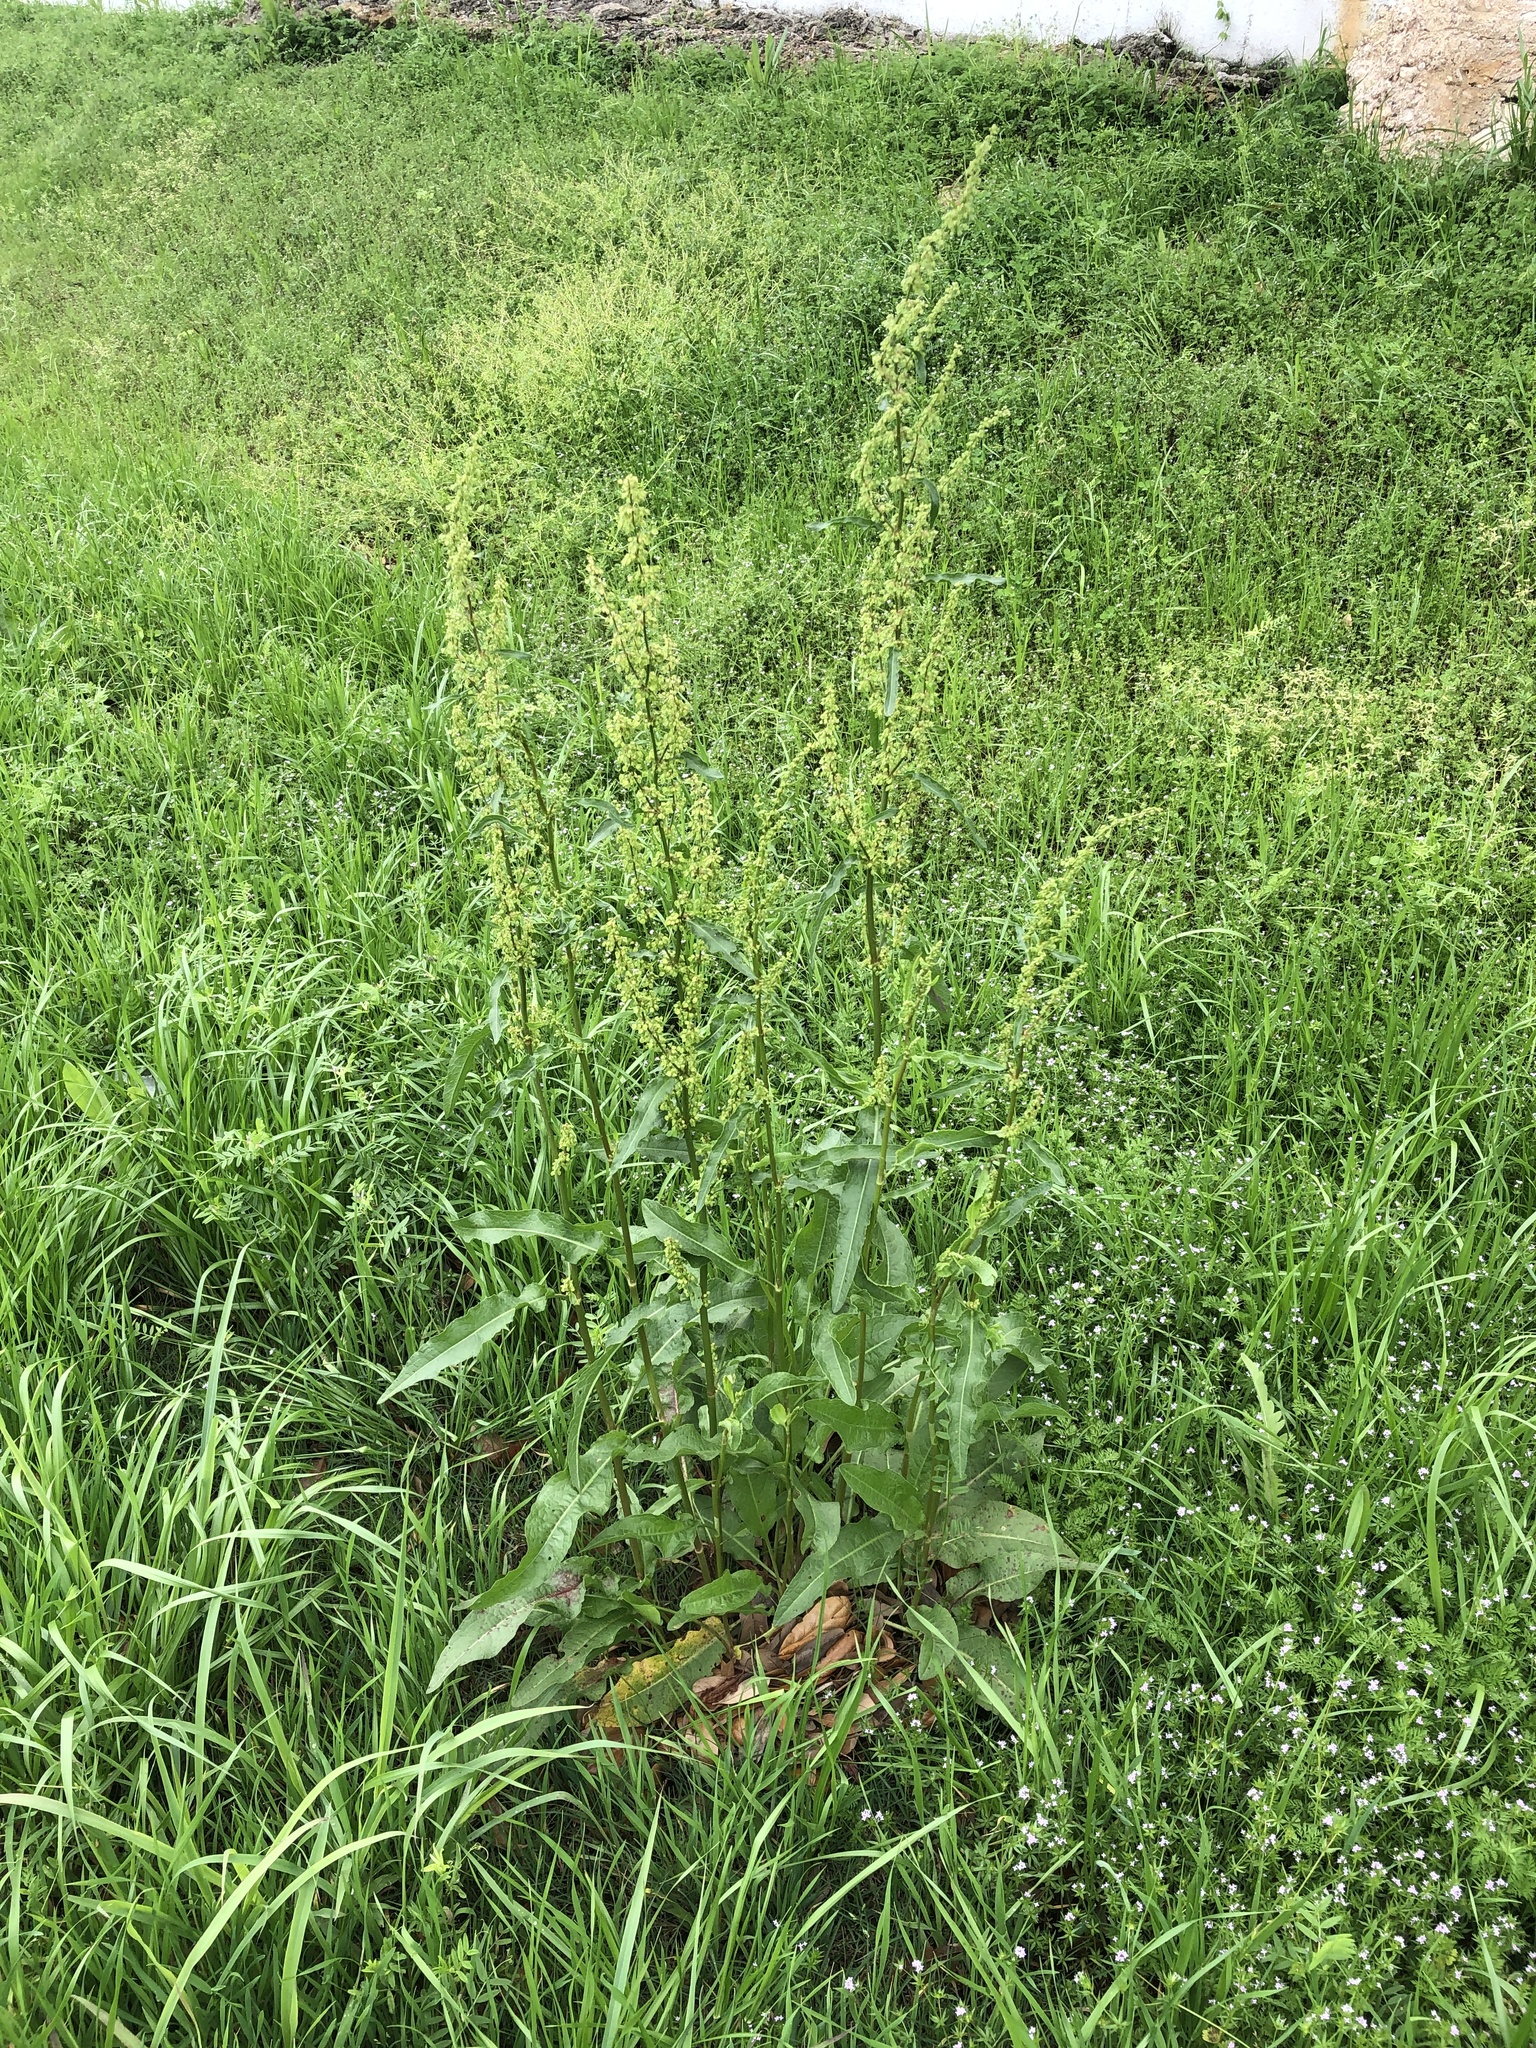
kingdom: Plantae
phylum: Tracheophyta
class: Magnoliopsida
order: Caryophyllales
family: Polygonaceae
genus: Rumex
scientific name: Rumex crispus
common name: Curled dock
